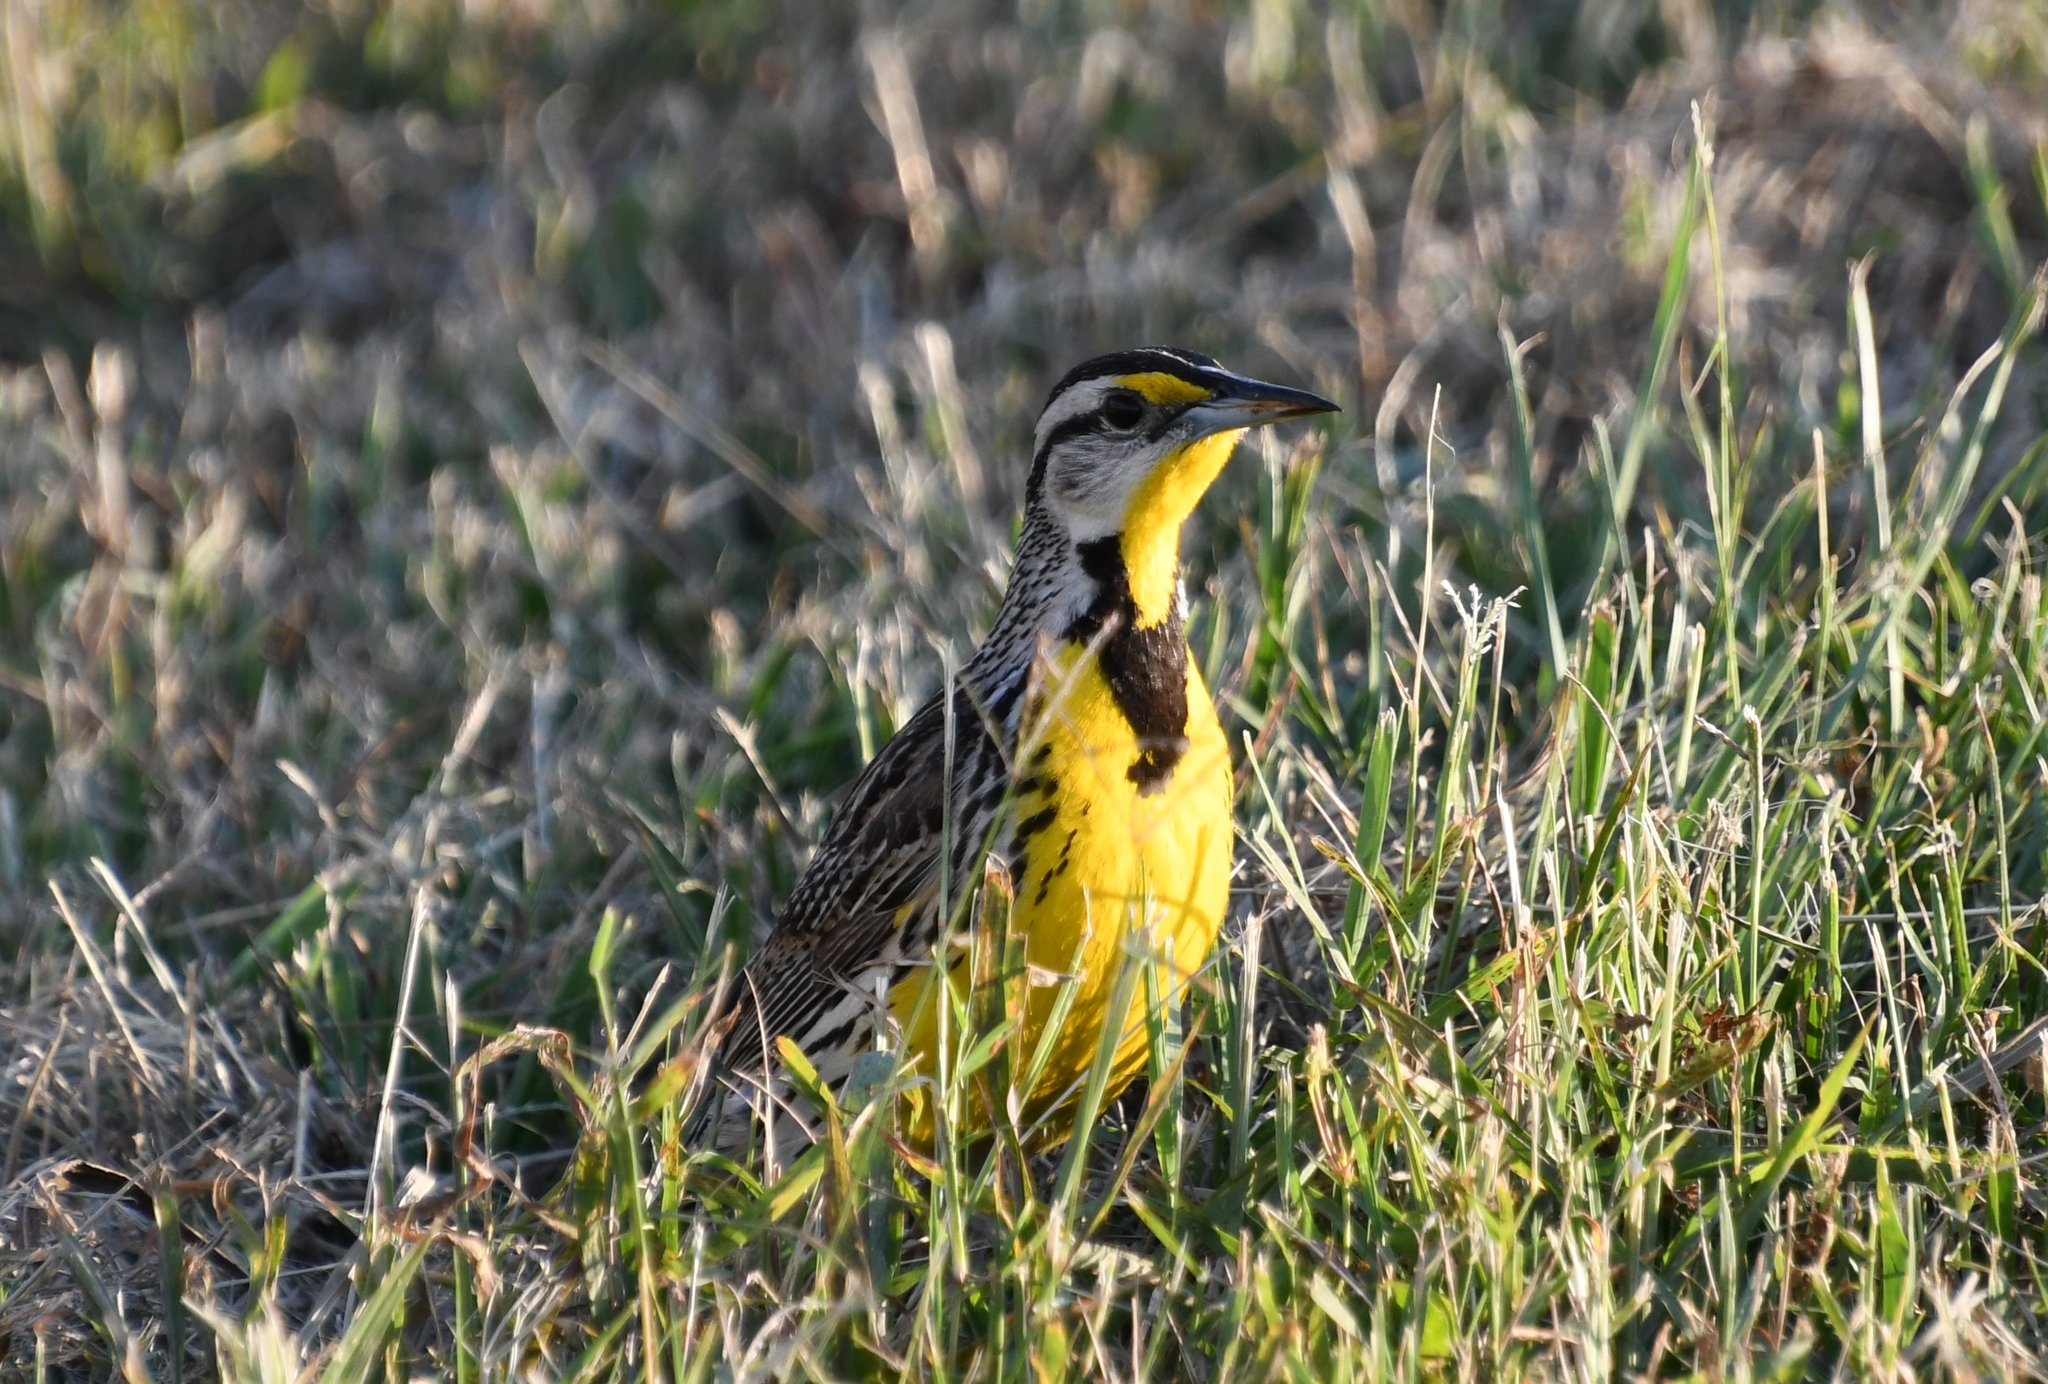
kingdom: Animalia
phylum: Chordata
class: Aves
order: Passeriformes
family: Icteridae
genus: Sturnella
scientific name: Sturnella magna
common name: Eastern meadowlark
